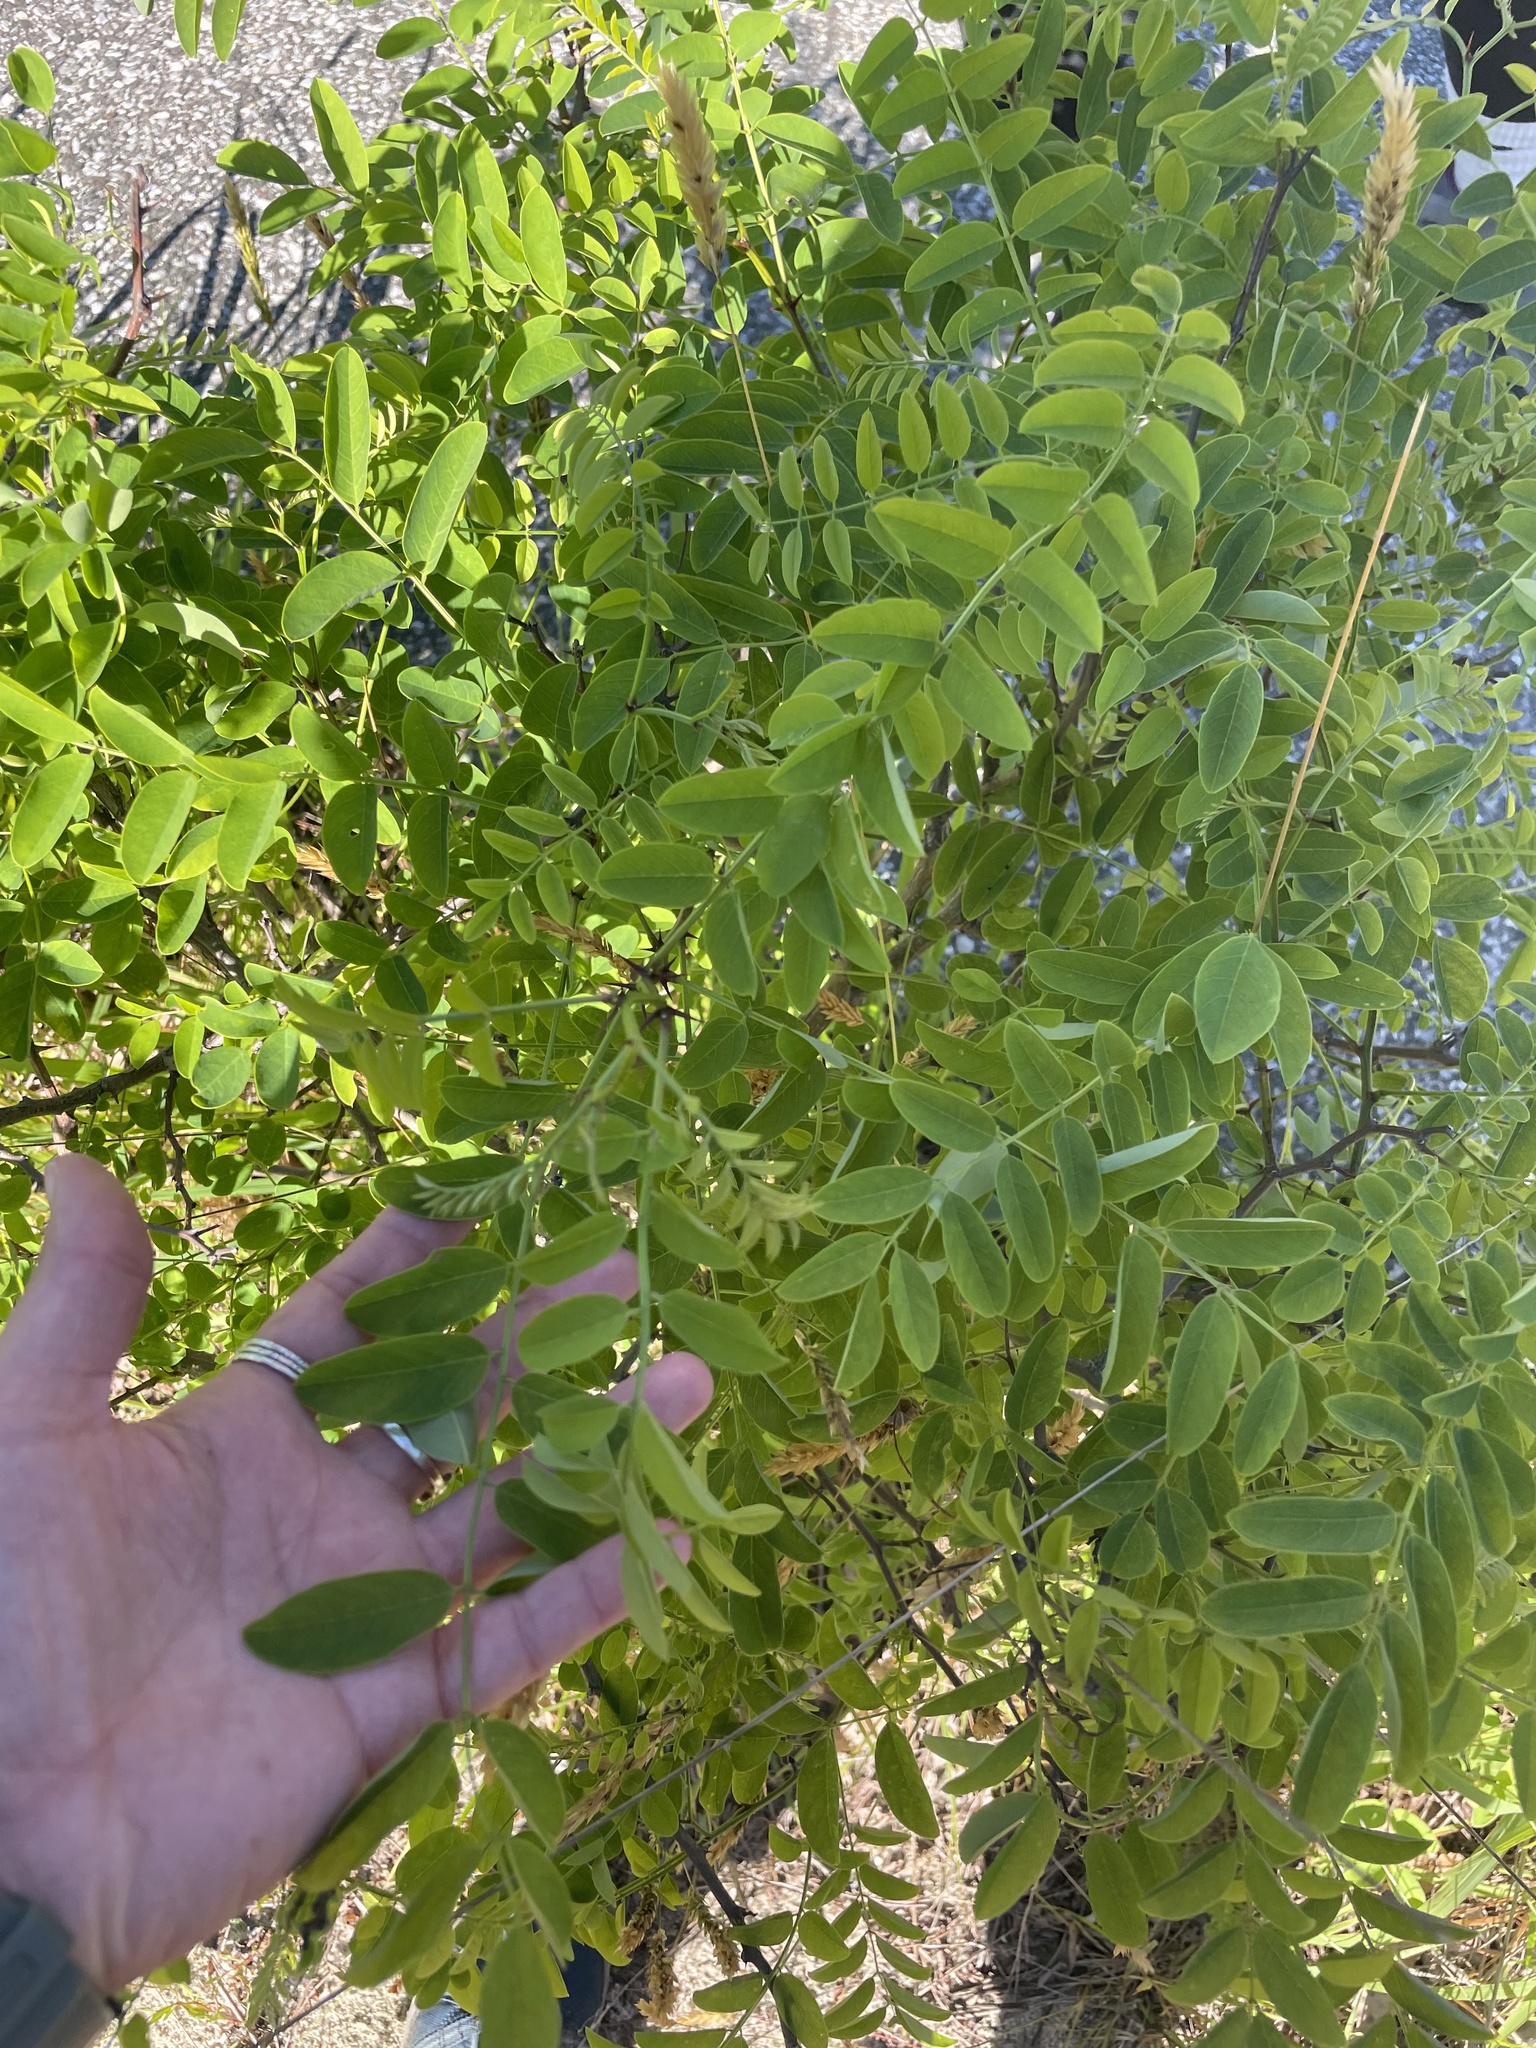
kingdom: Plantae
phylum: Tracheophyta
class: Magnoliopsida
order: Fabales
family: Fabaceae
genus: Robinia
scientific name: Robinia pseudoacacia
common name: Black locust
